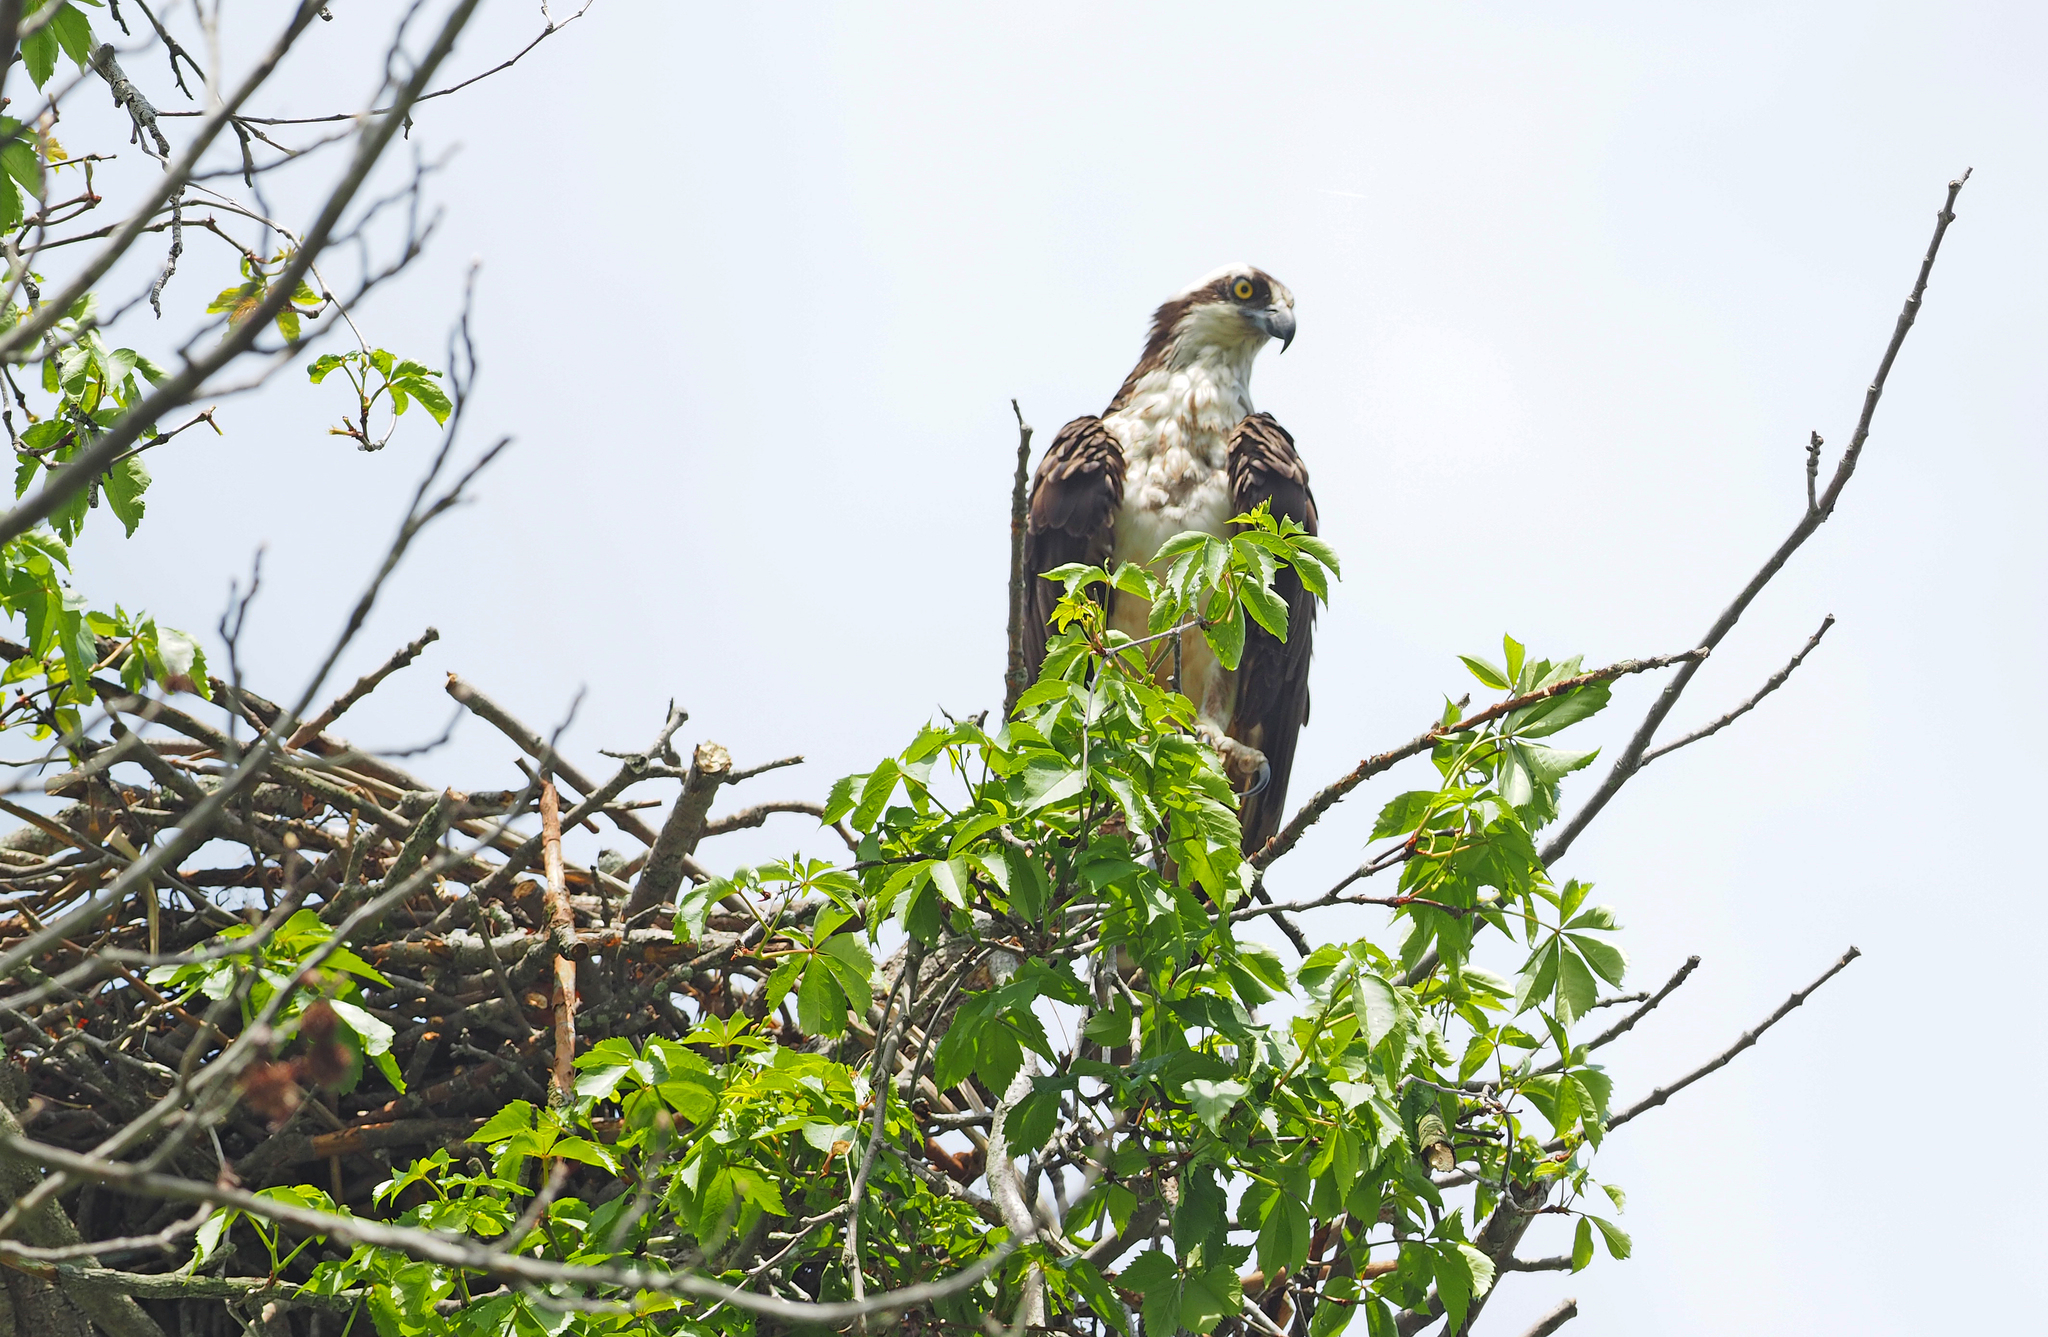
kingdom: Animalia
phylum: Chordata
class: Aves
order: Accipitriformes
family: Pandionidae
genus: Pandion
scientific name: Pandion haliaetus
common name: Osprey
